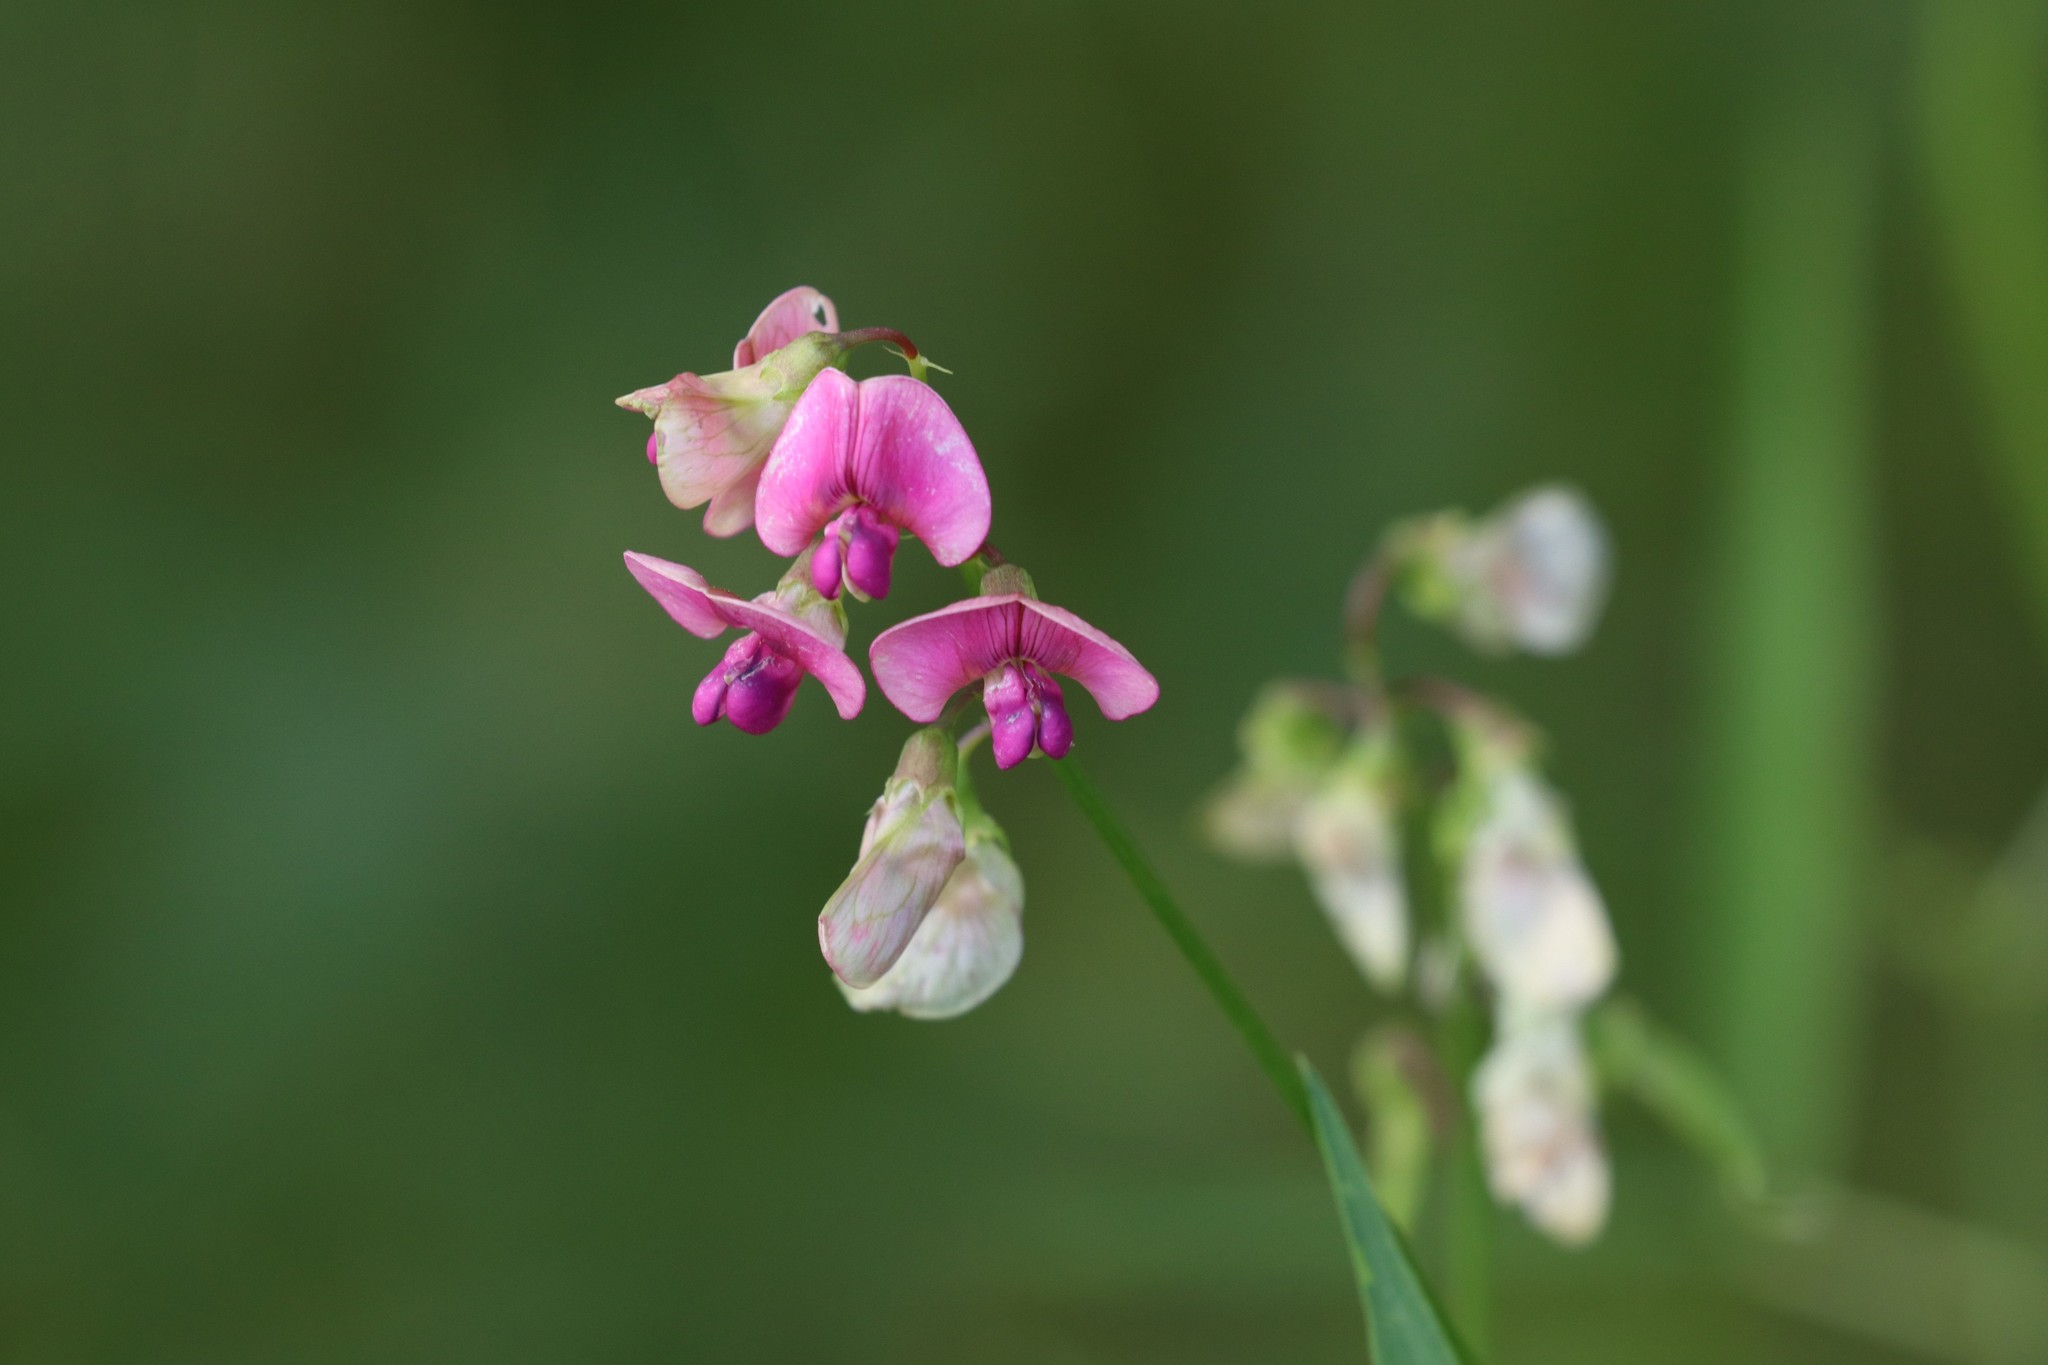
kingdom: Plantae
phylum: Tracheophyta
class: Magnoliopsida
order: Fabales
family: Fabaceae
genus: Lathyrus
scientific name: Lathyrus sylvestris
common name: Flat pea
